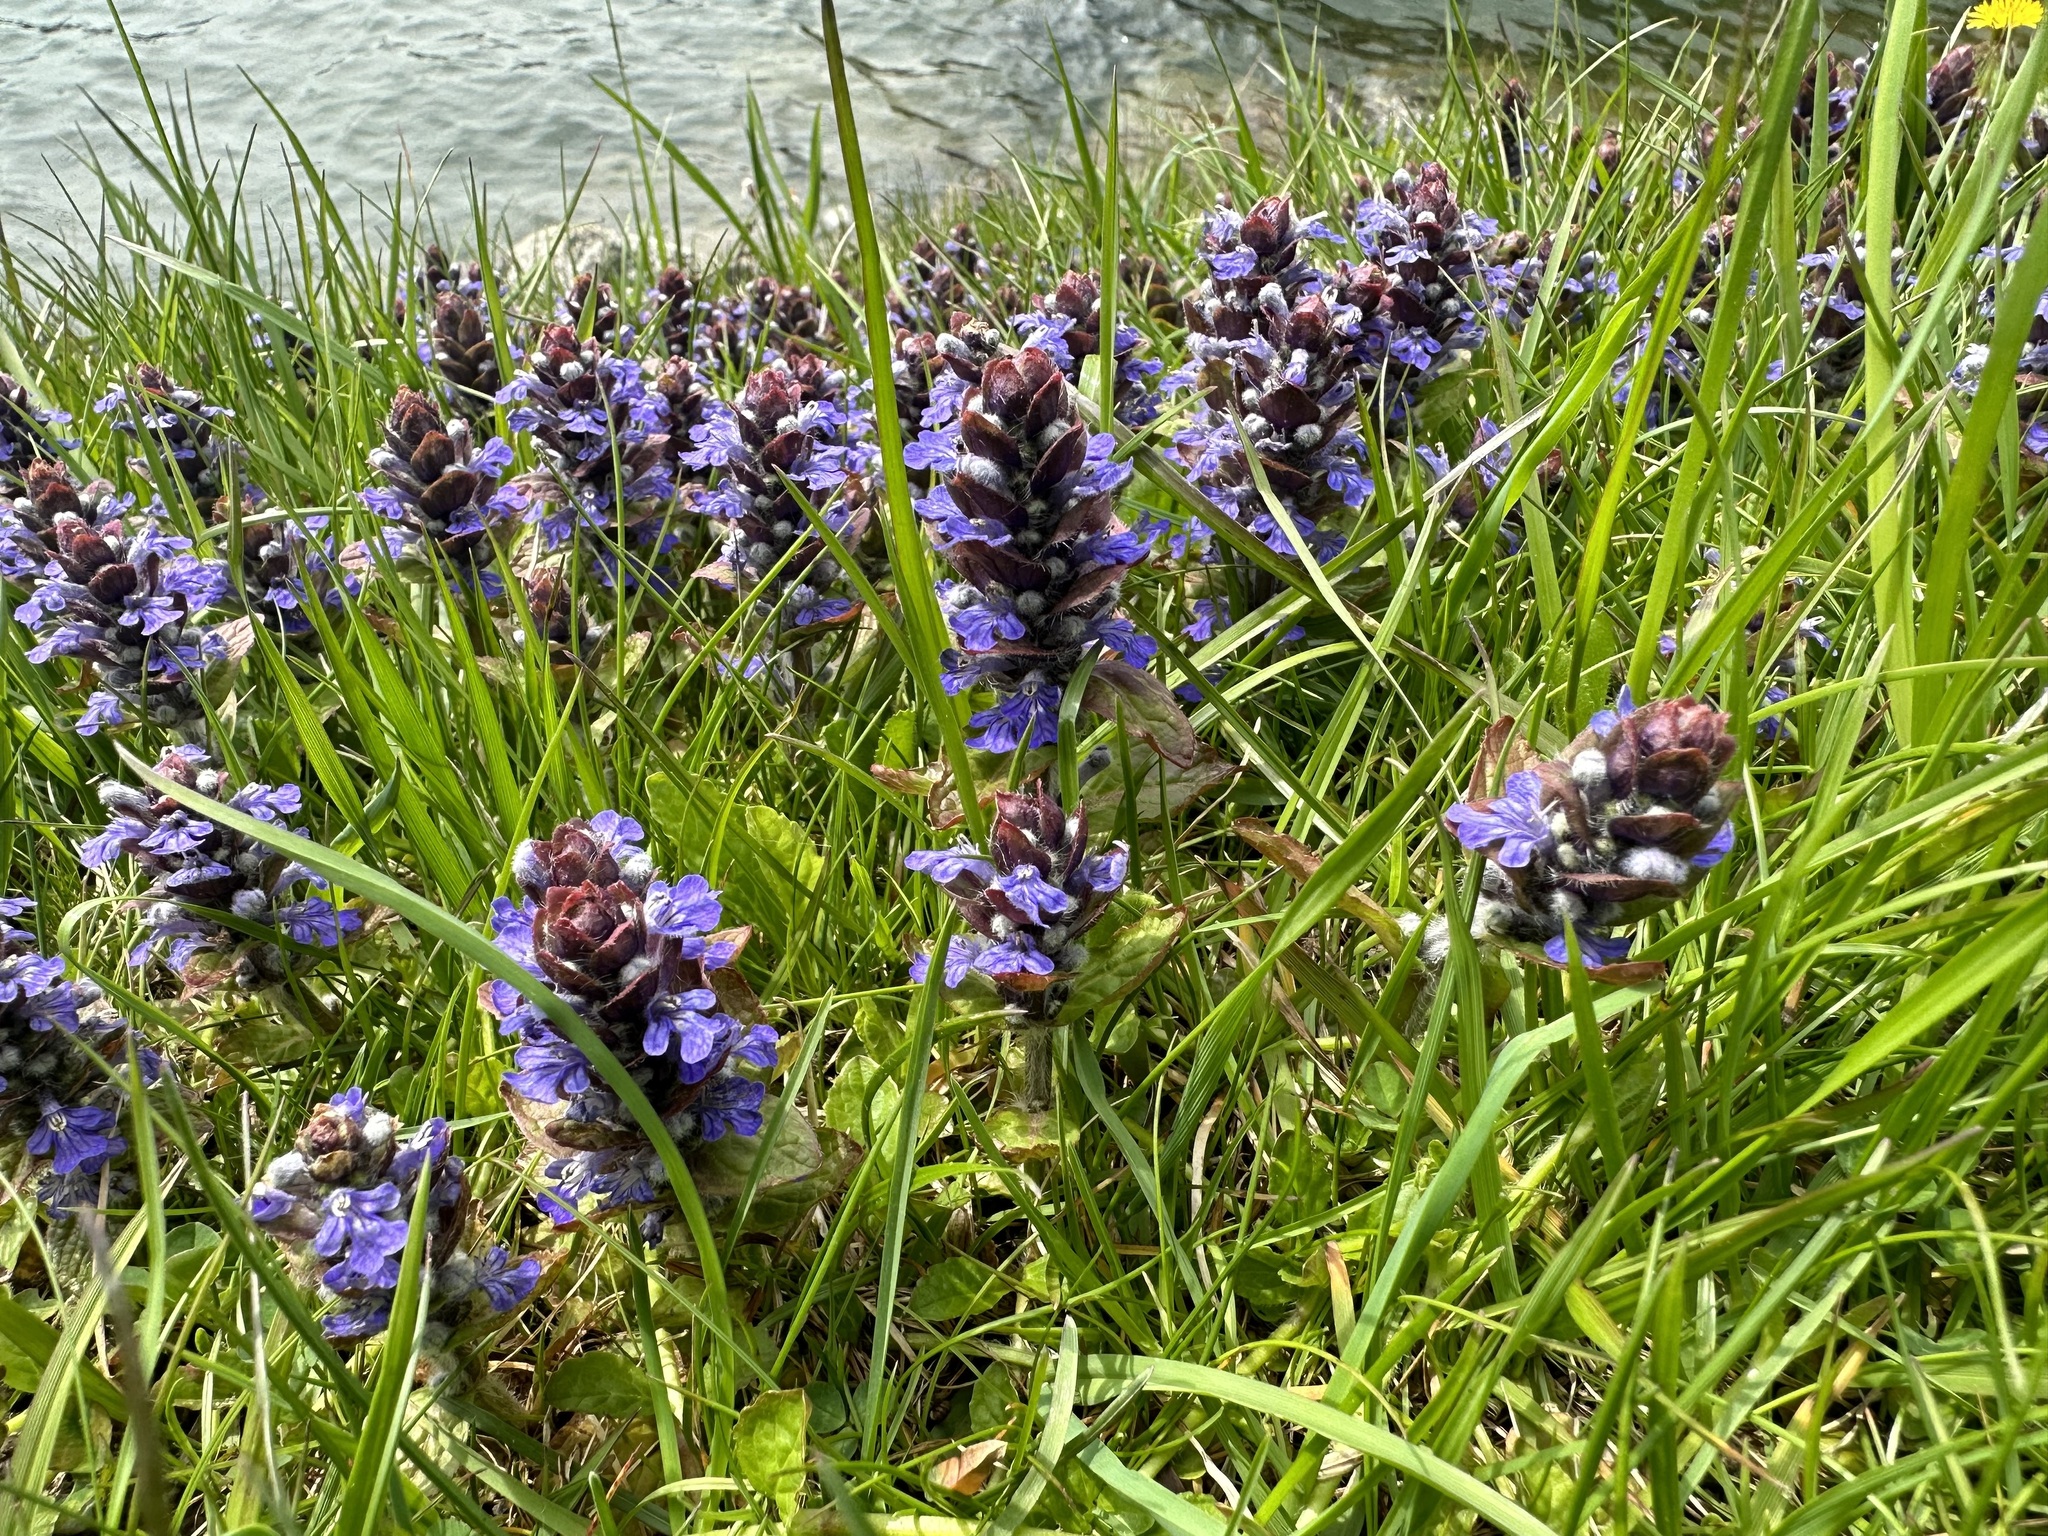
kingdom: Plantae
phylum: Tracheophyta
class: Magnoliopsida
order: Lamiales
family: Lamiaceae
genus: Ajuga
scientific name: Ajuga reptans
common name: Bugle
